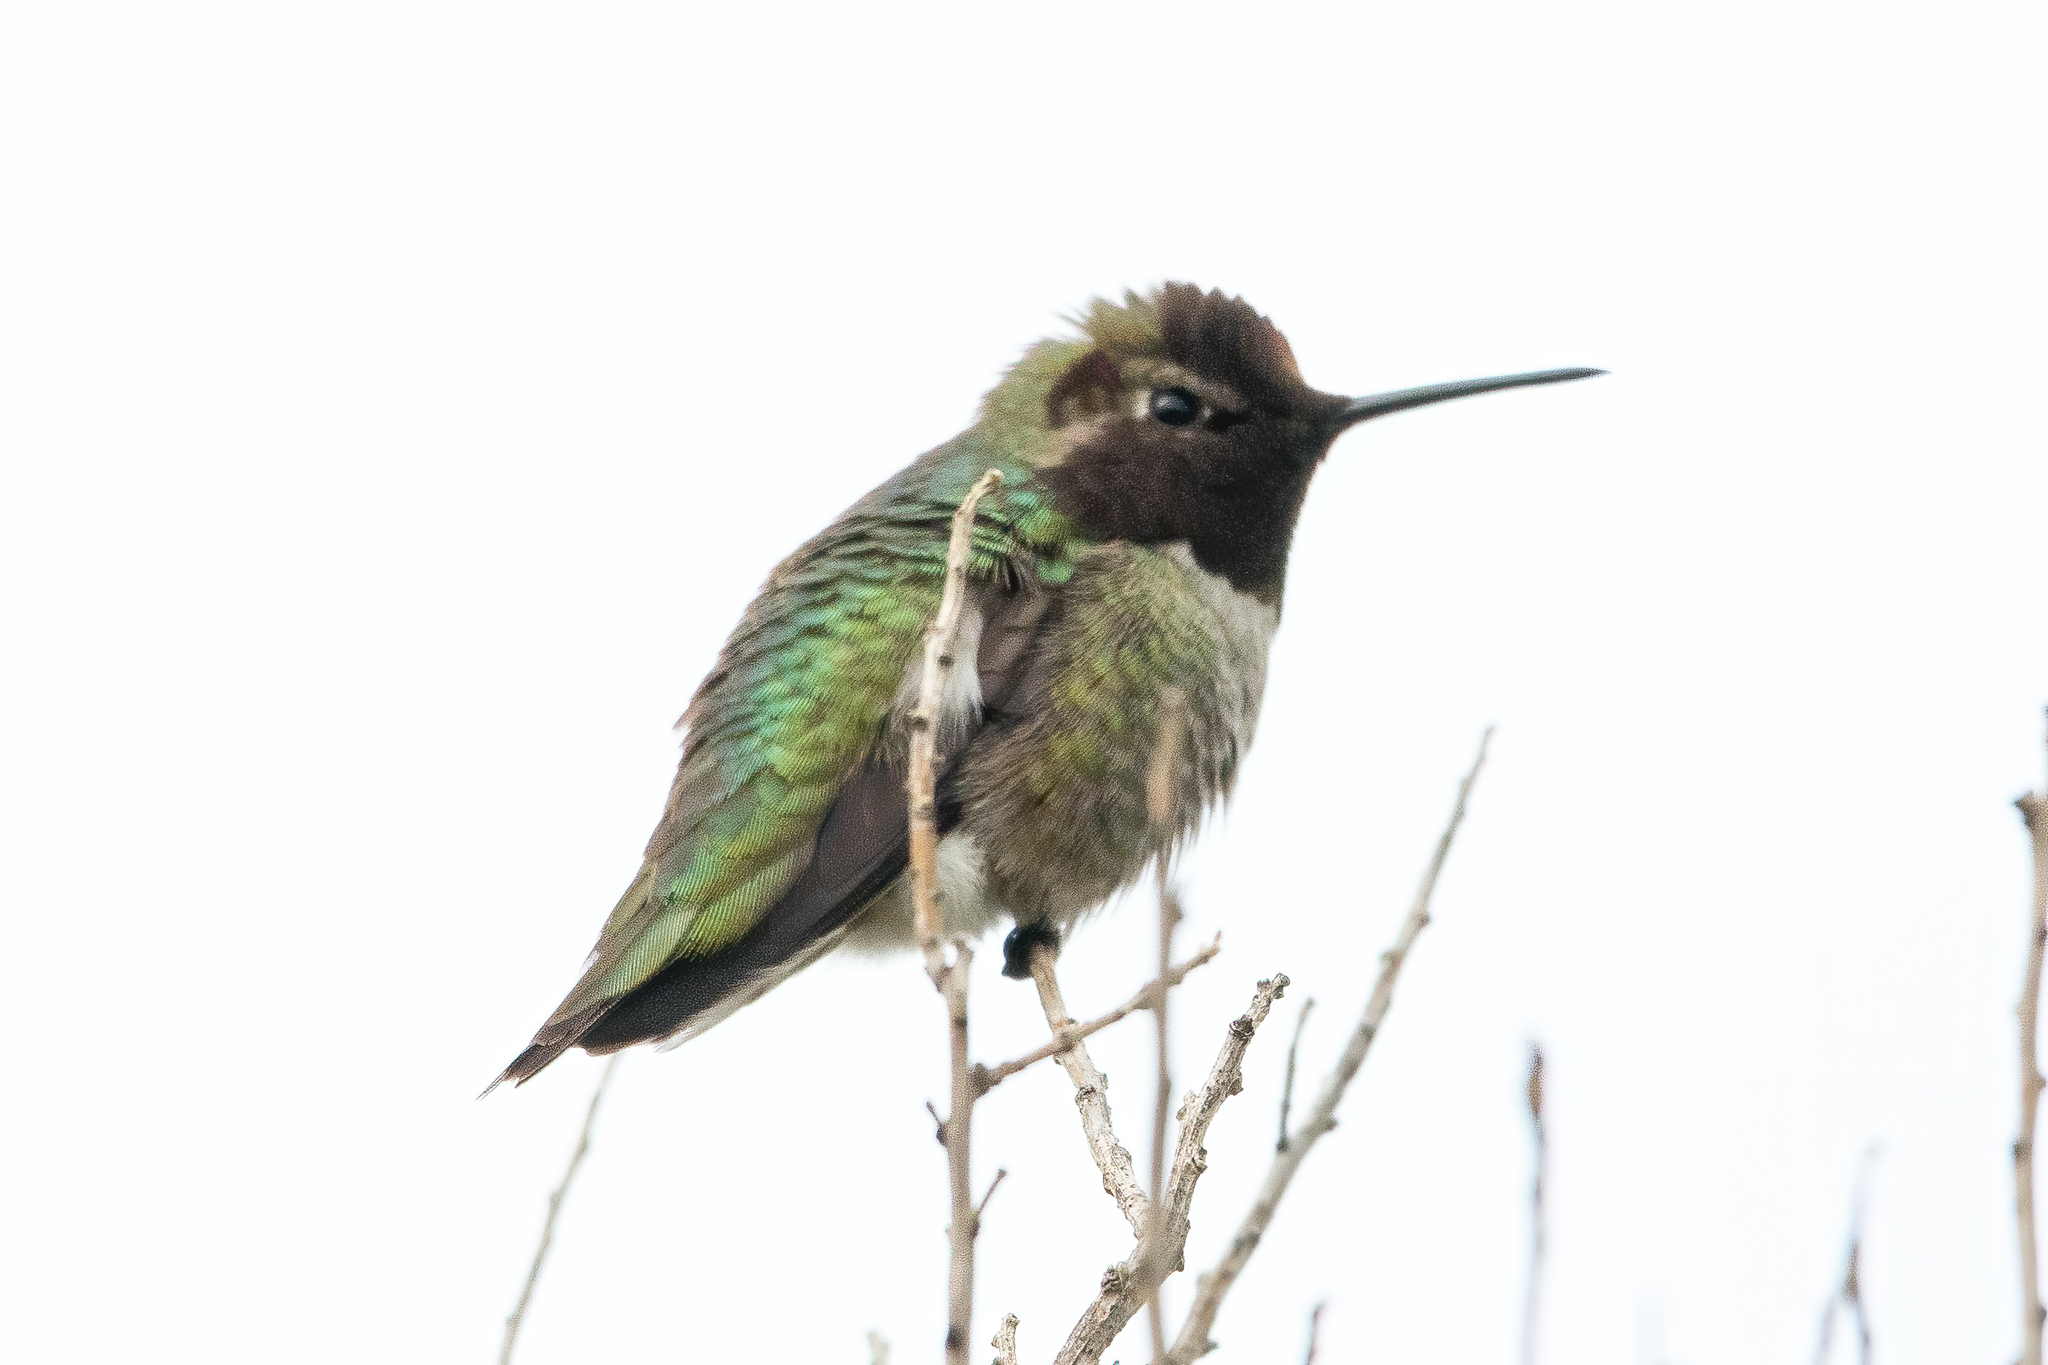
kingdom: Animalia
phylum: Chordata
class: Aves
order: Apodiformes
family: Trochilidae
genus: Calypte
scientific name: Calypte anna
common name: Anna's hummingbird
